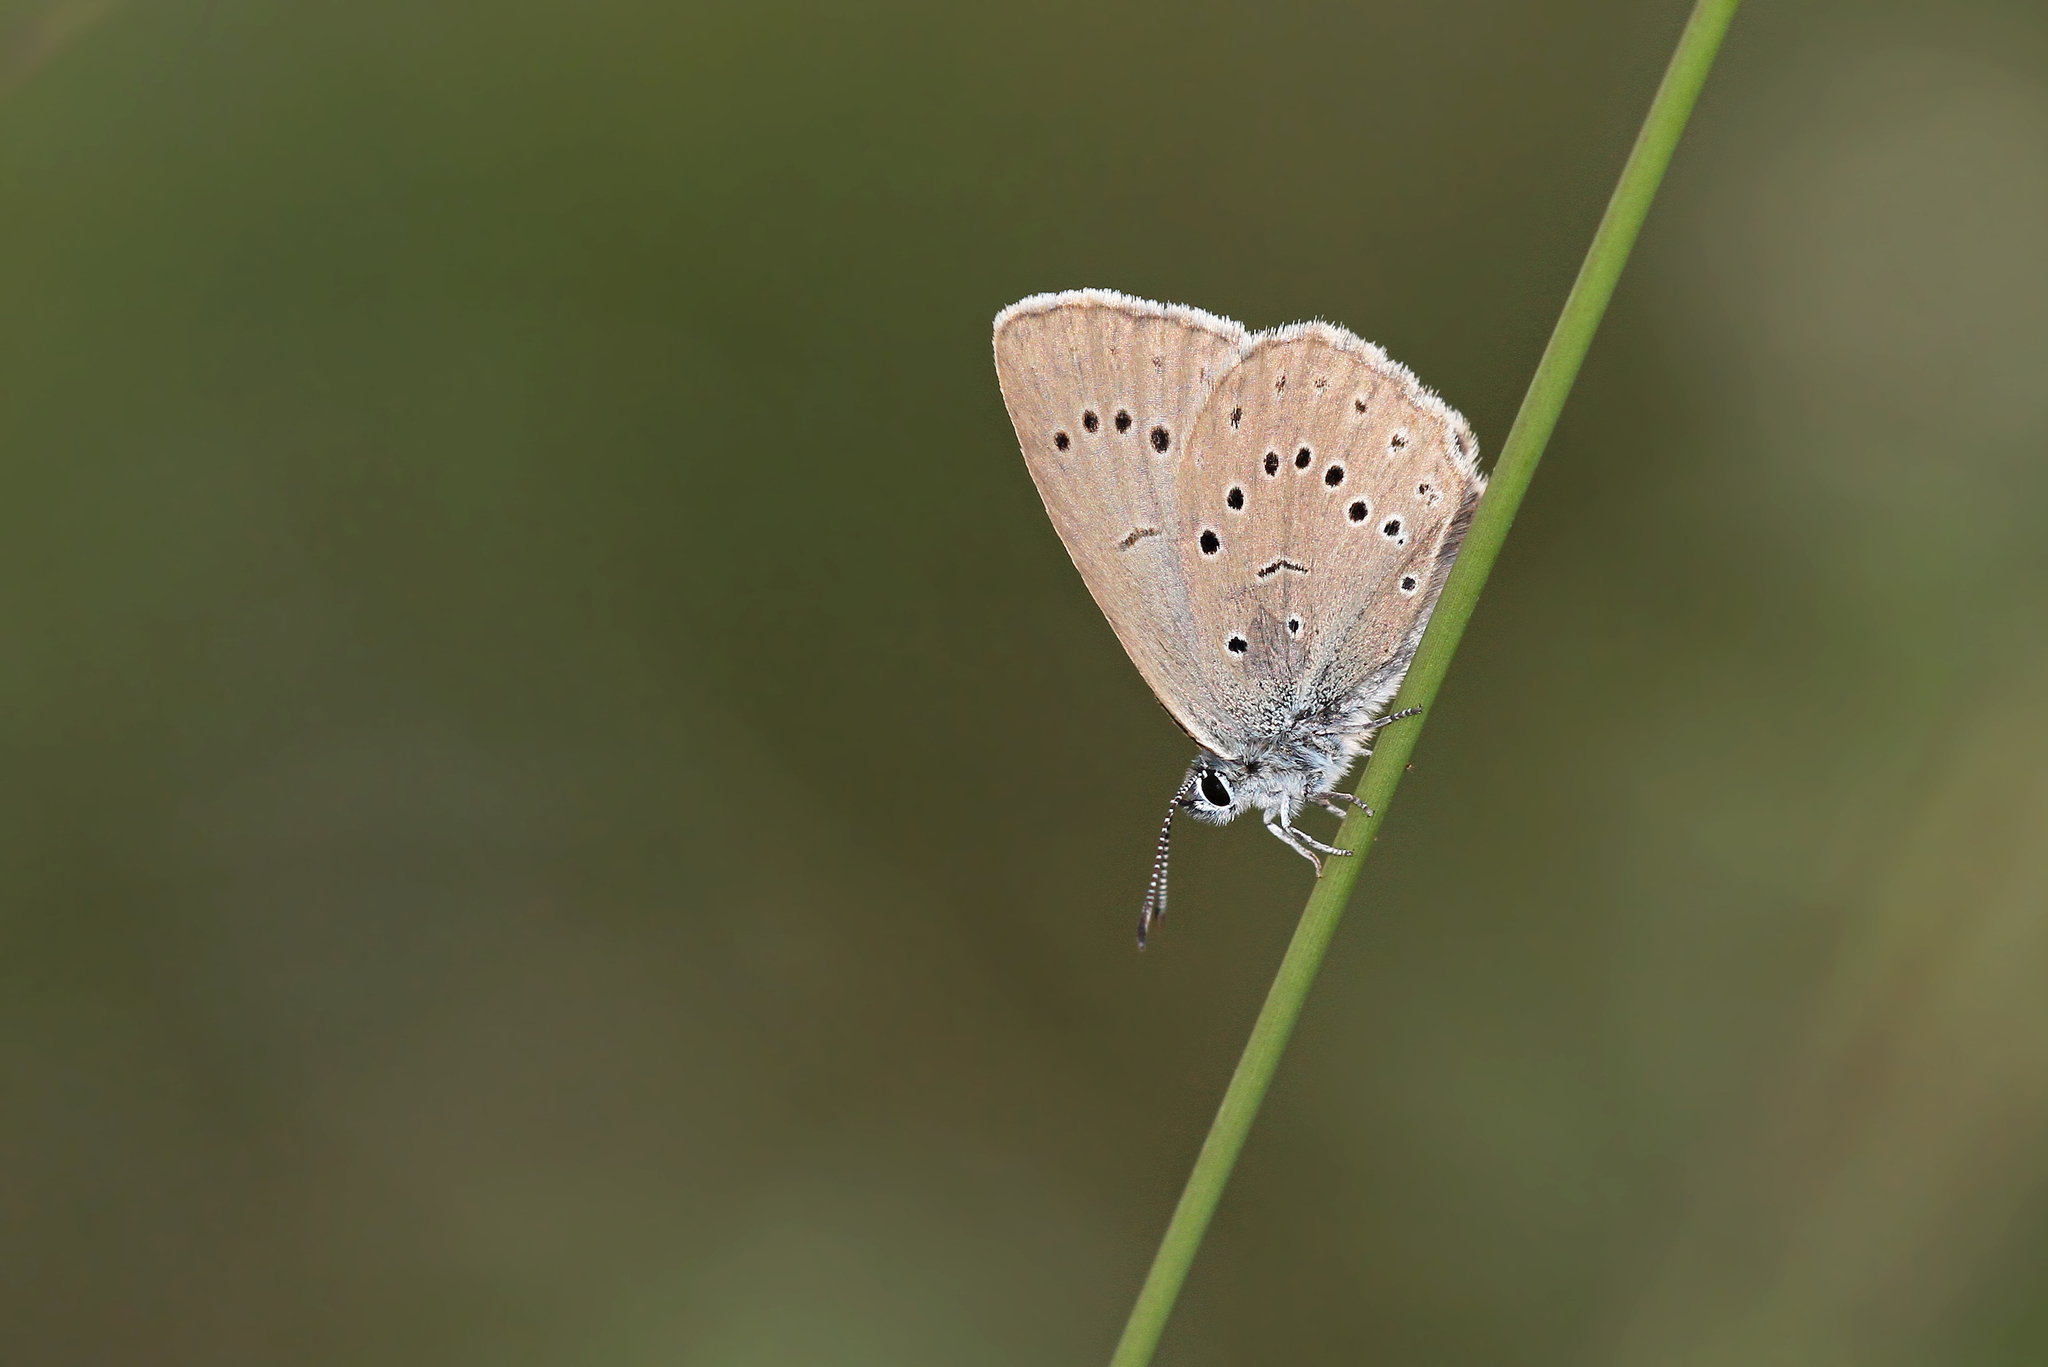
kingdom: Animalia
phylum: Arthropoda
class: Insecta
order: Lepidoptera
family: Lycaenidae
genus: Phengaris
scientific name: Phengaris teleius
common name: Scarce large blue
